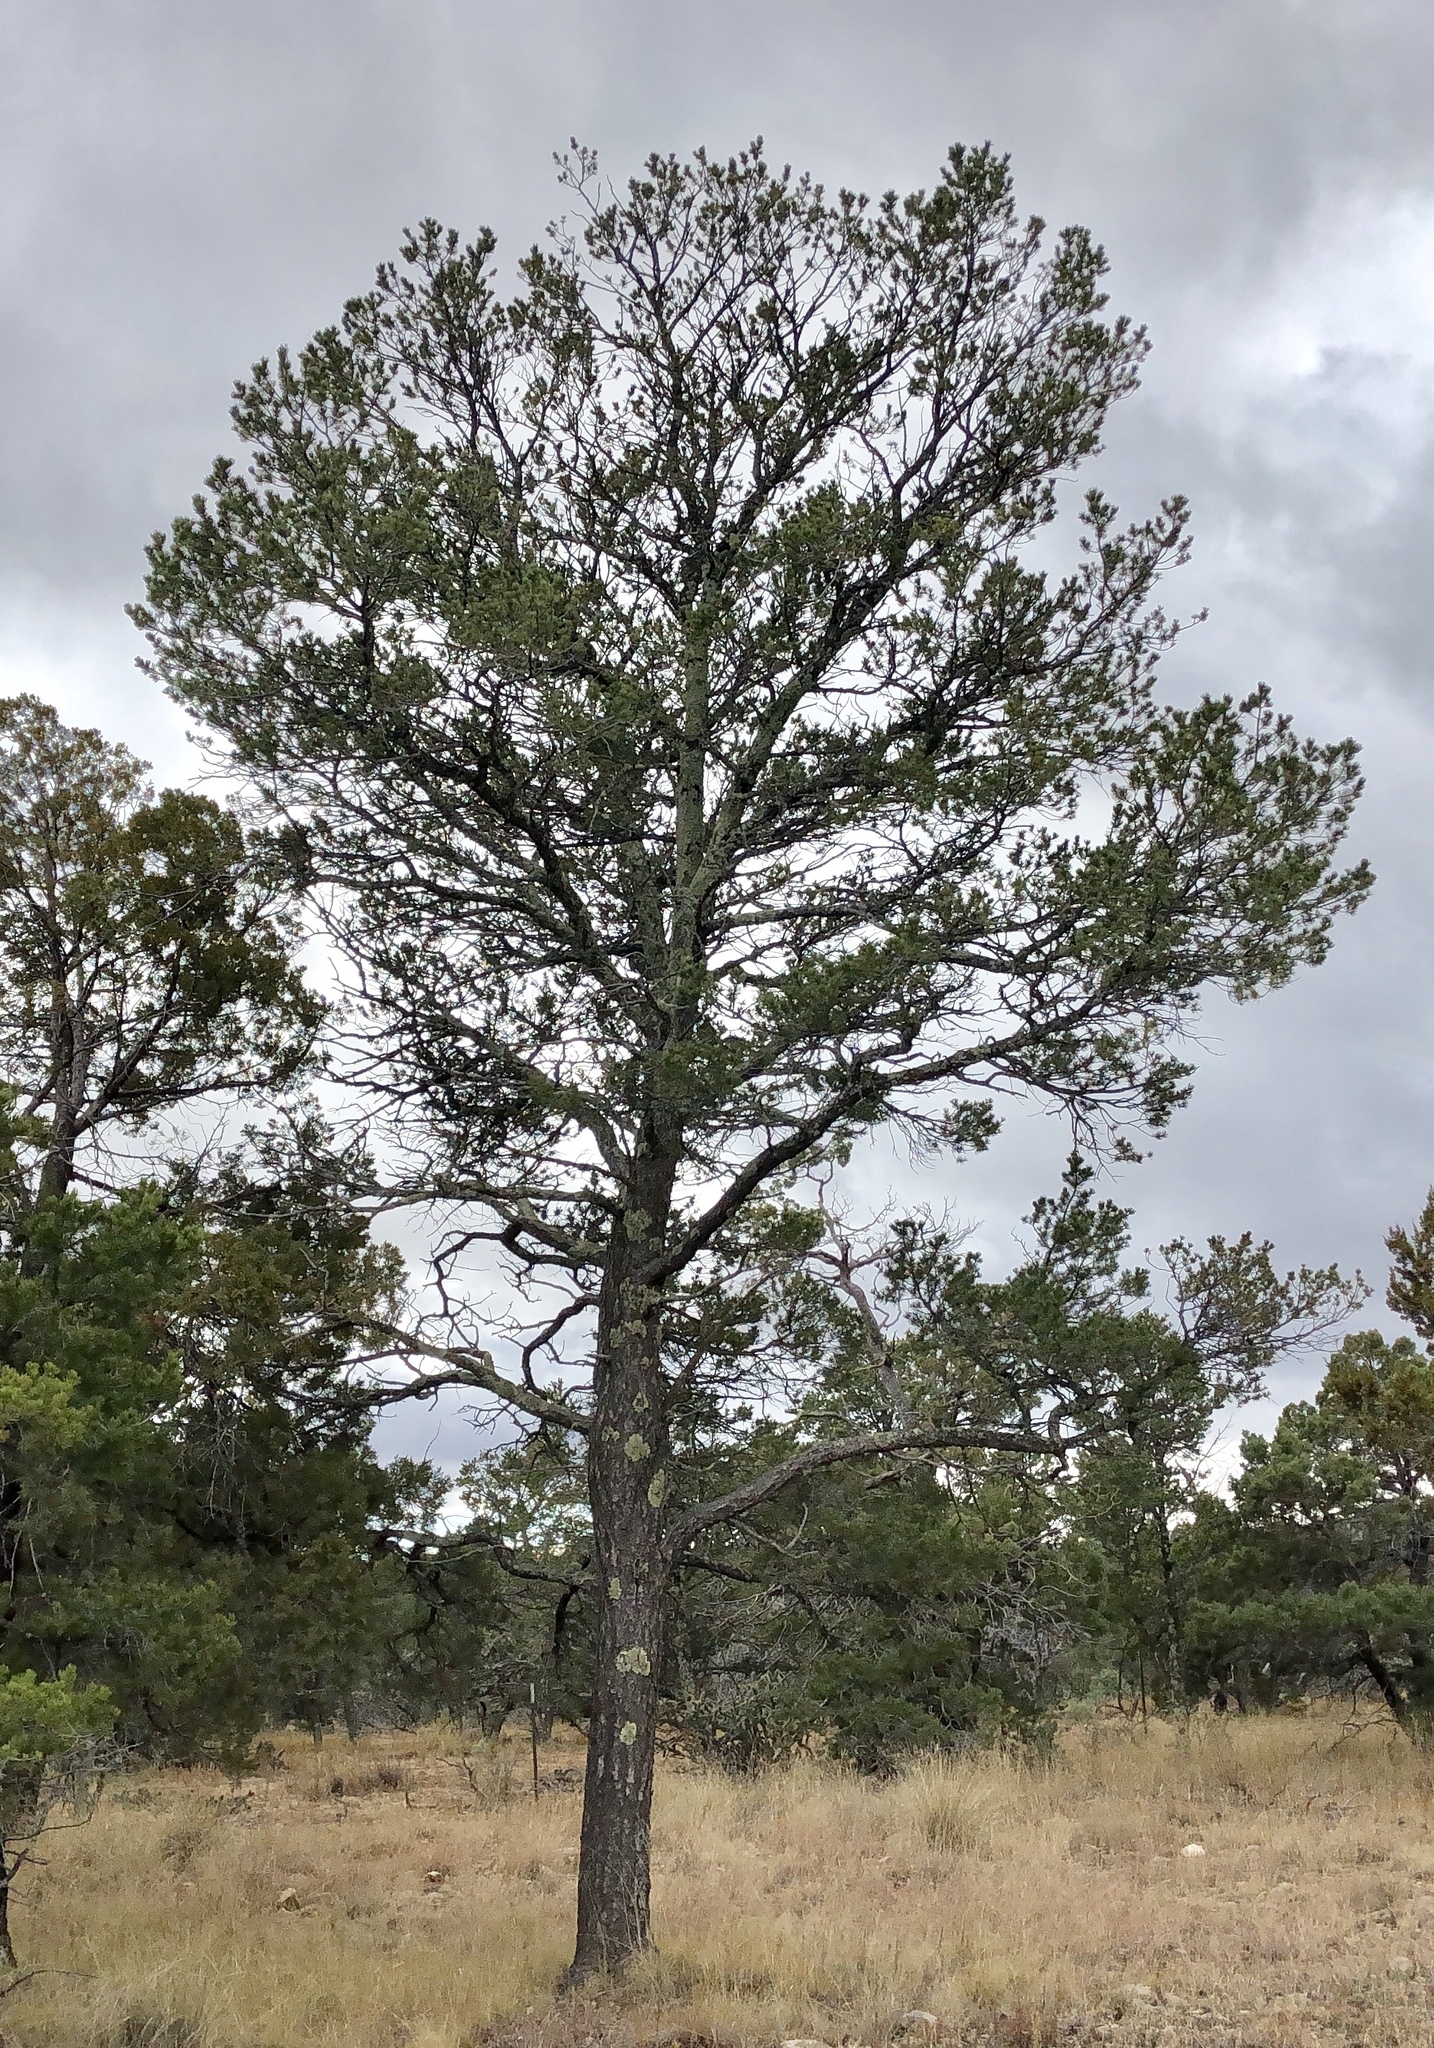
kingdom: Plantae
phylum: Tracheophyta
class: Pinopsida
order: Pinales
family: Pinaceae
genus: Pinus
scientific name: Pinus edulis
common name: Colorado pinyon
